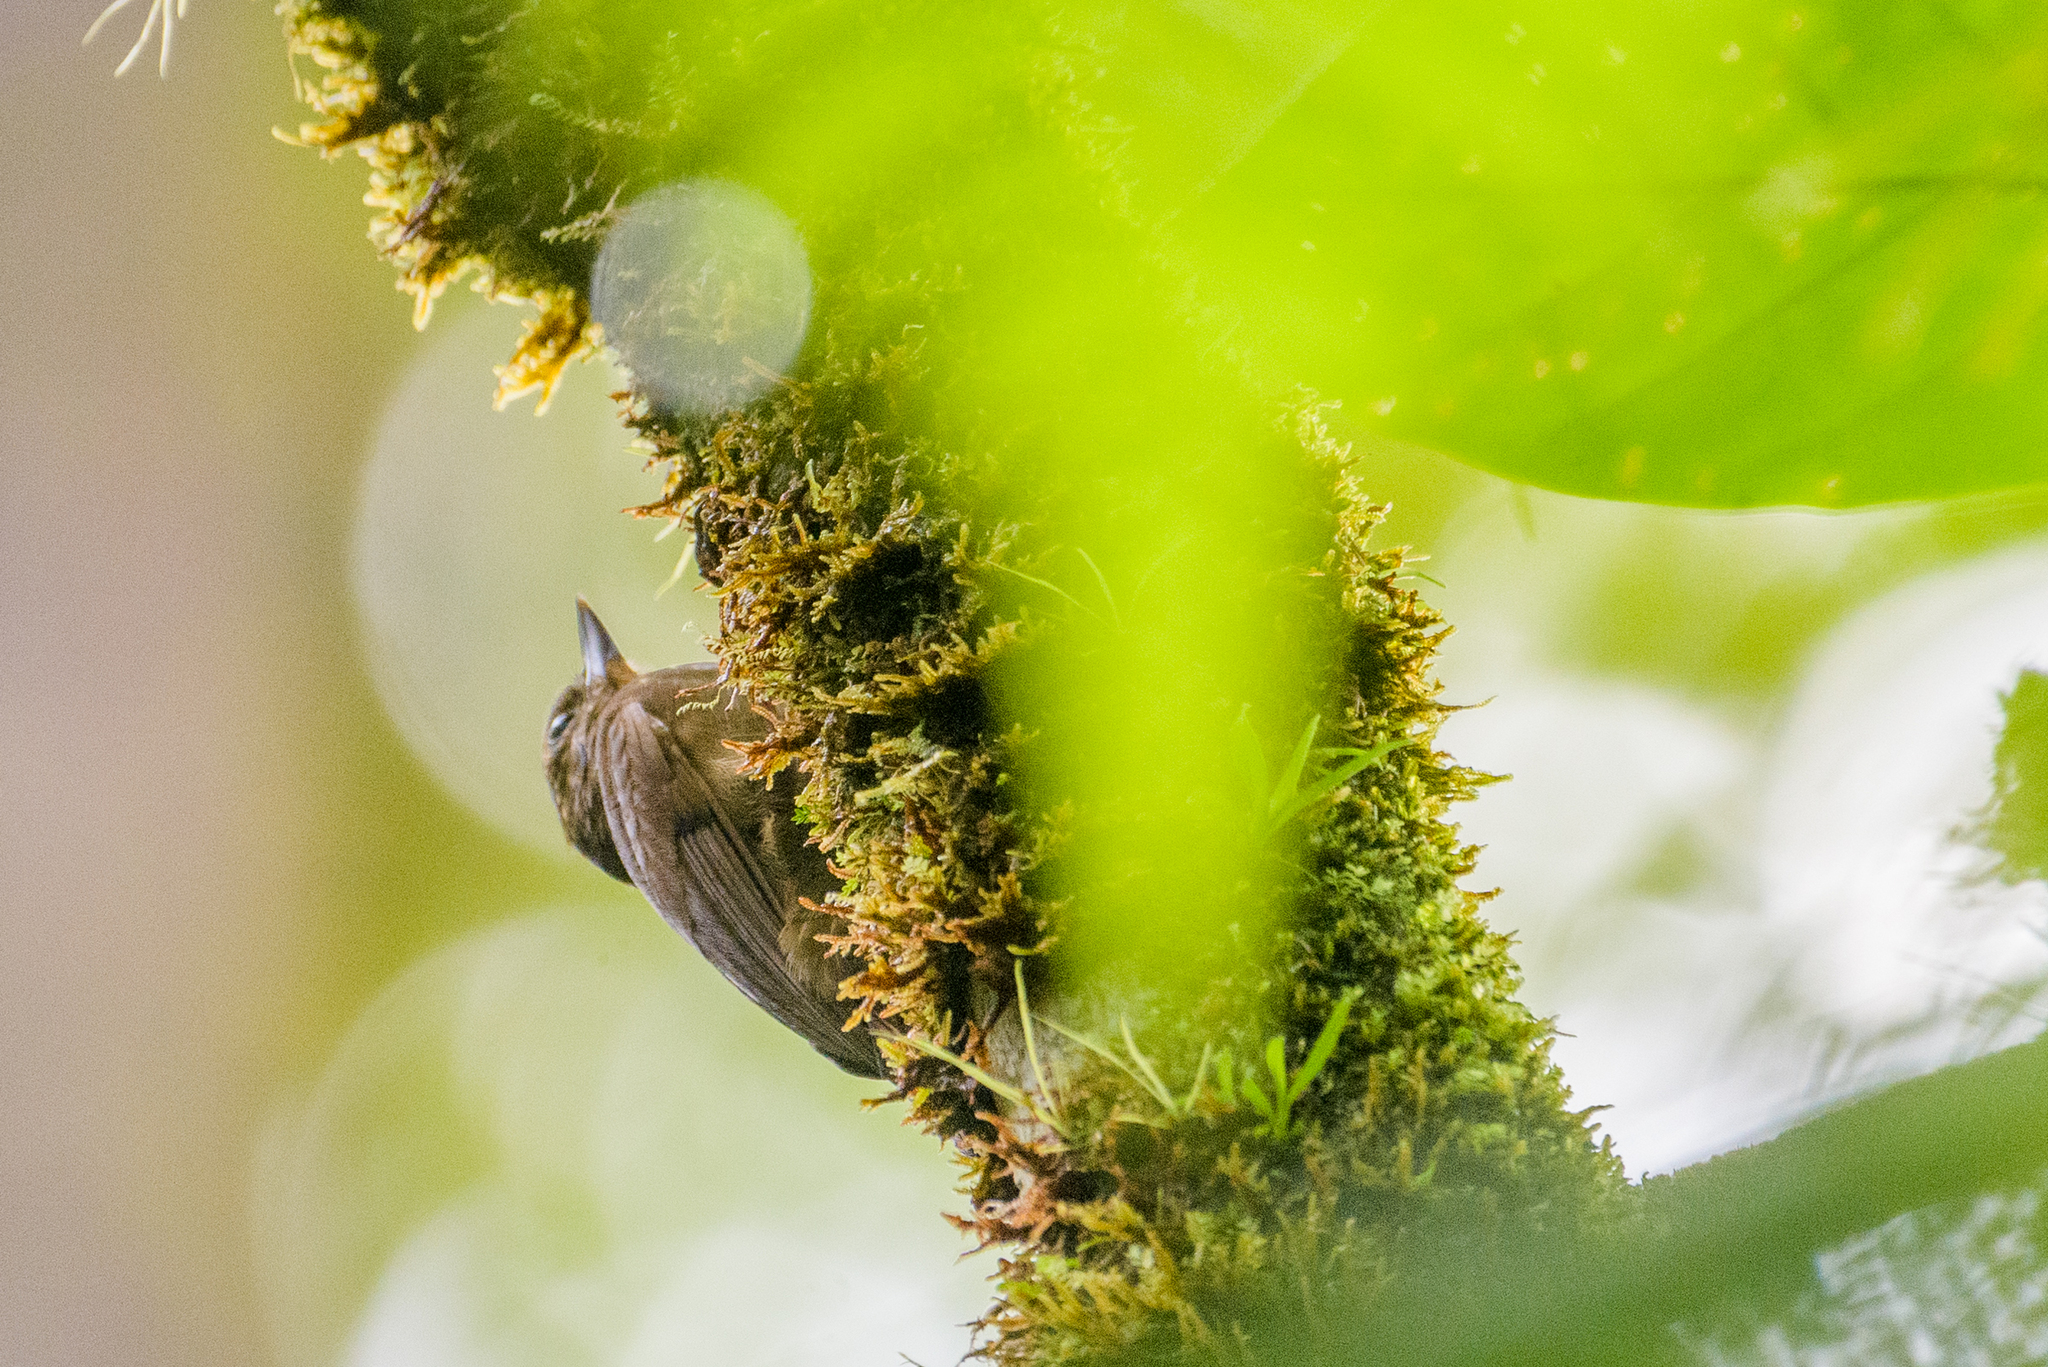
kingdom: Animalia
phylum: Chordata
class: Aves
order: Passeriformes
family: Furnariidae
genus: Glyphorynchus
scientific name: Glyphorynchus spirurus
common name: Wedge-billed woodcreeper
